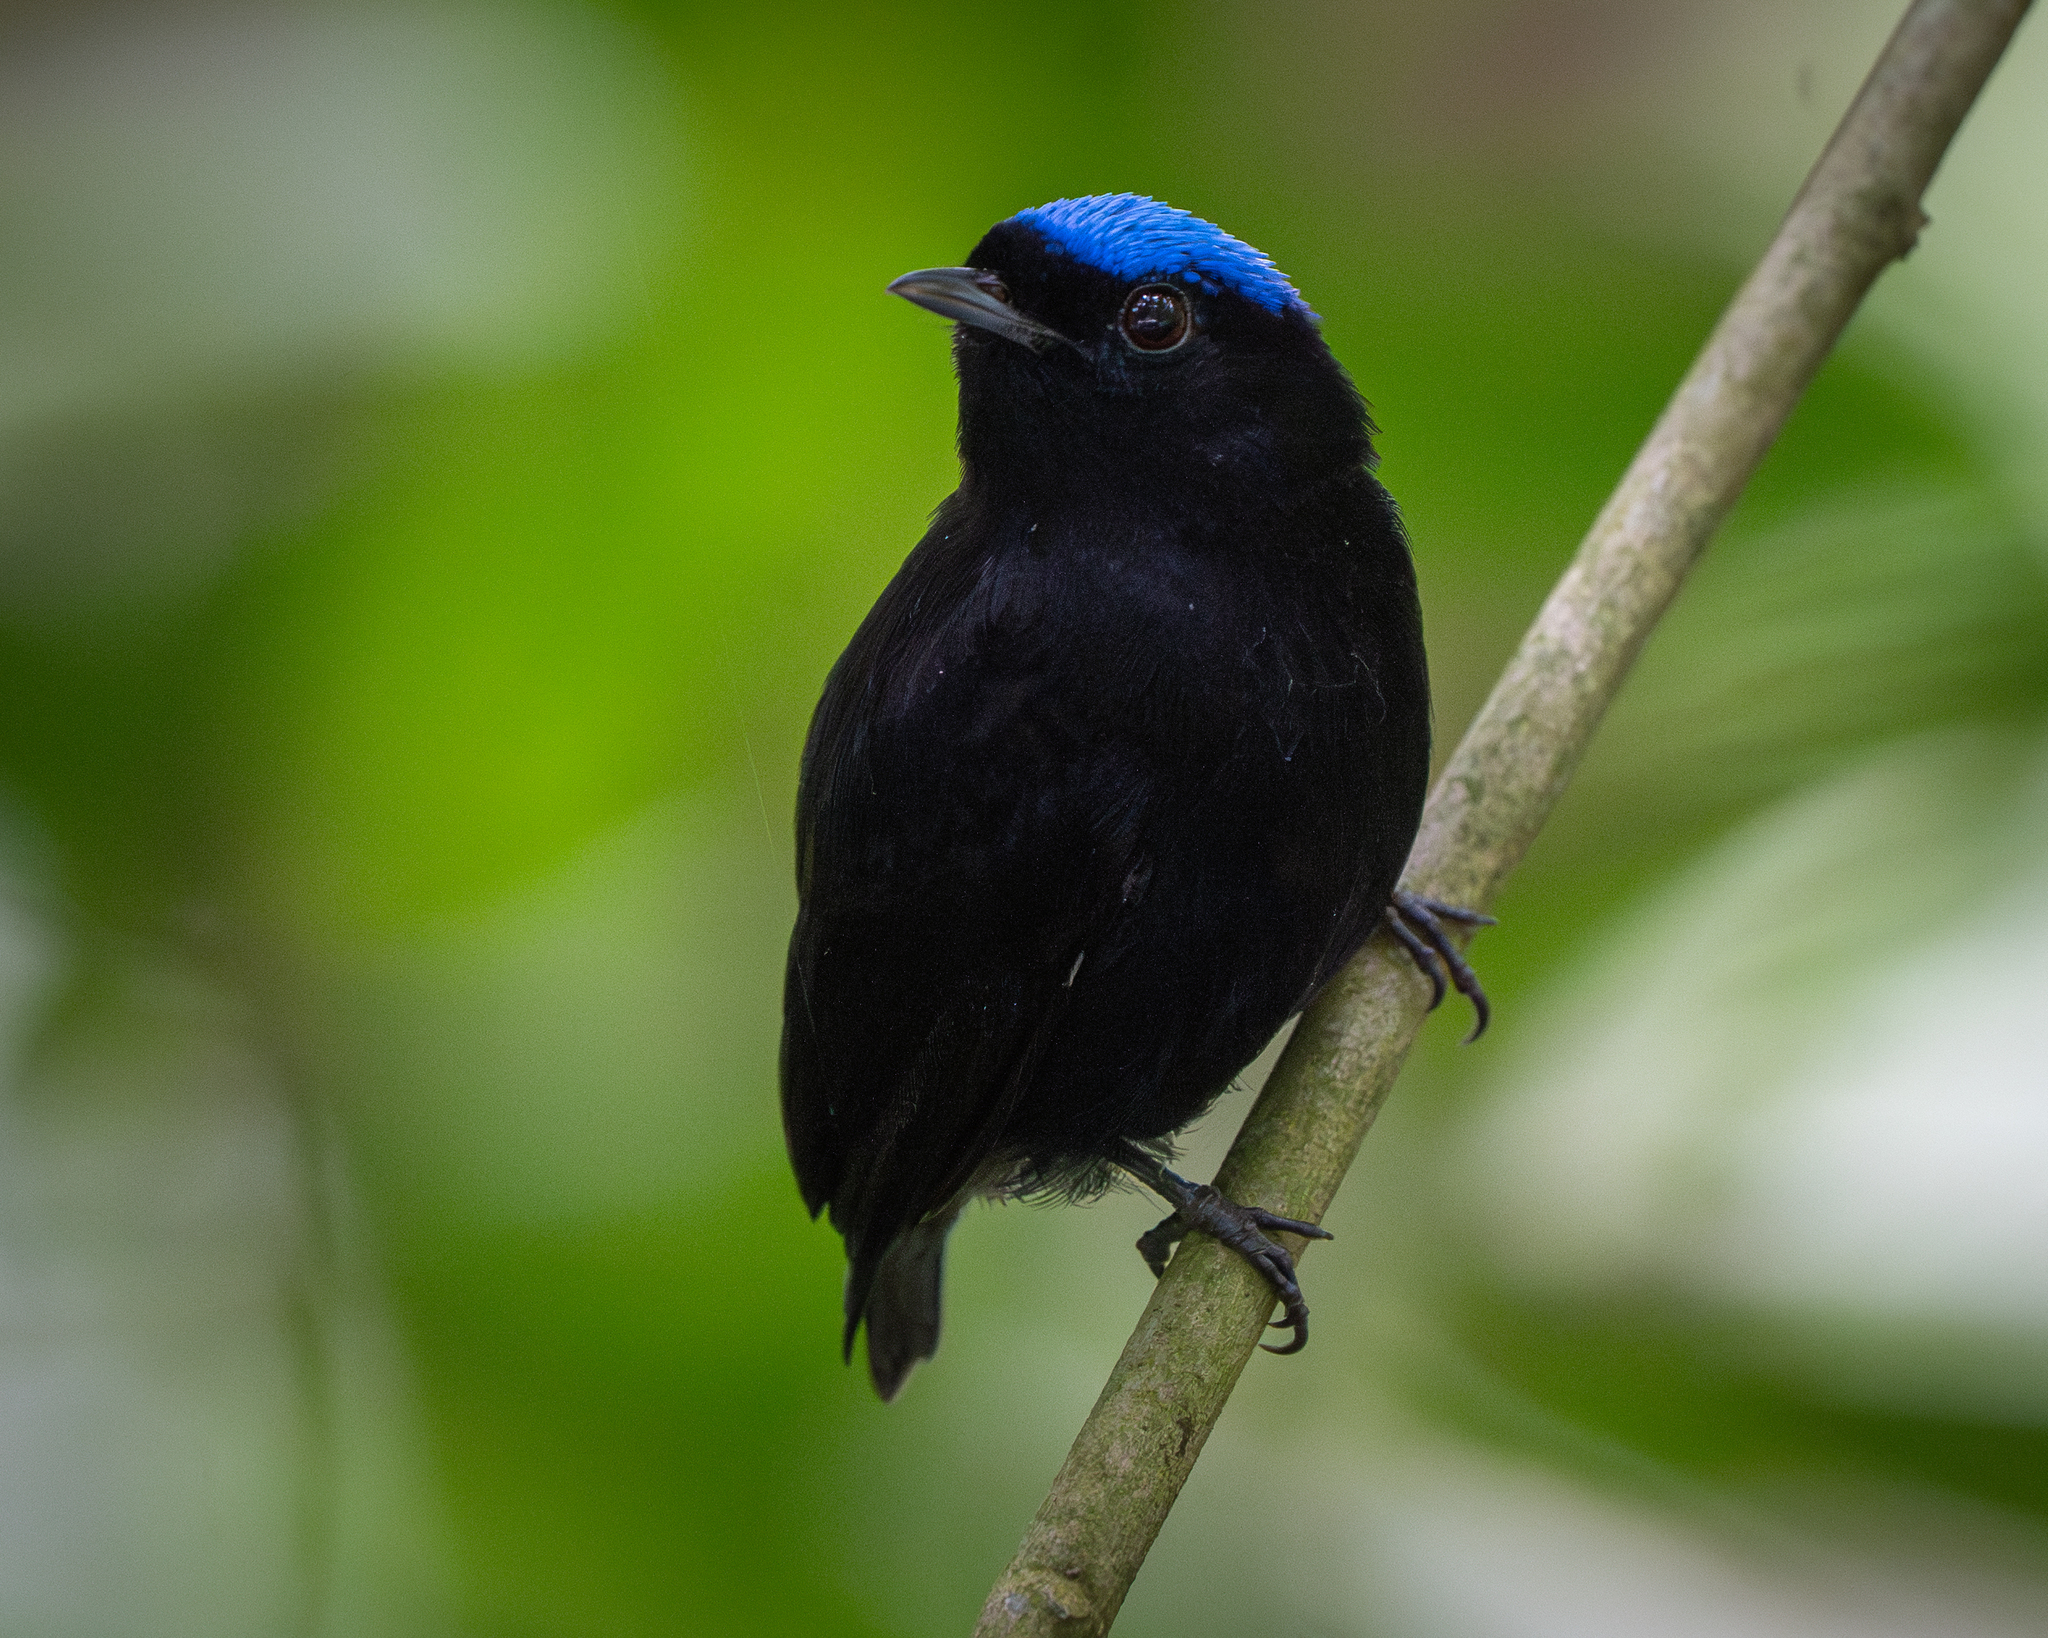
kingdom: Animalia
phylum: Chordata
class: Aves
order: Passeriformes
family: Pipridae
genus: Lepidothrix
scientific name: Lepidothrix coronata
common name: Blue-crowned manakin
